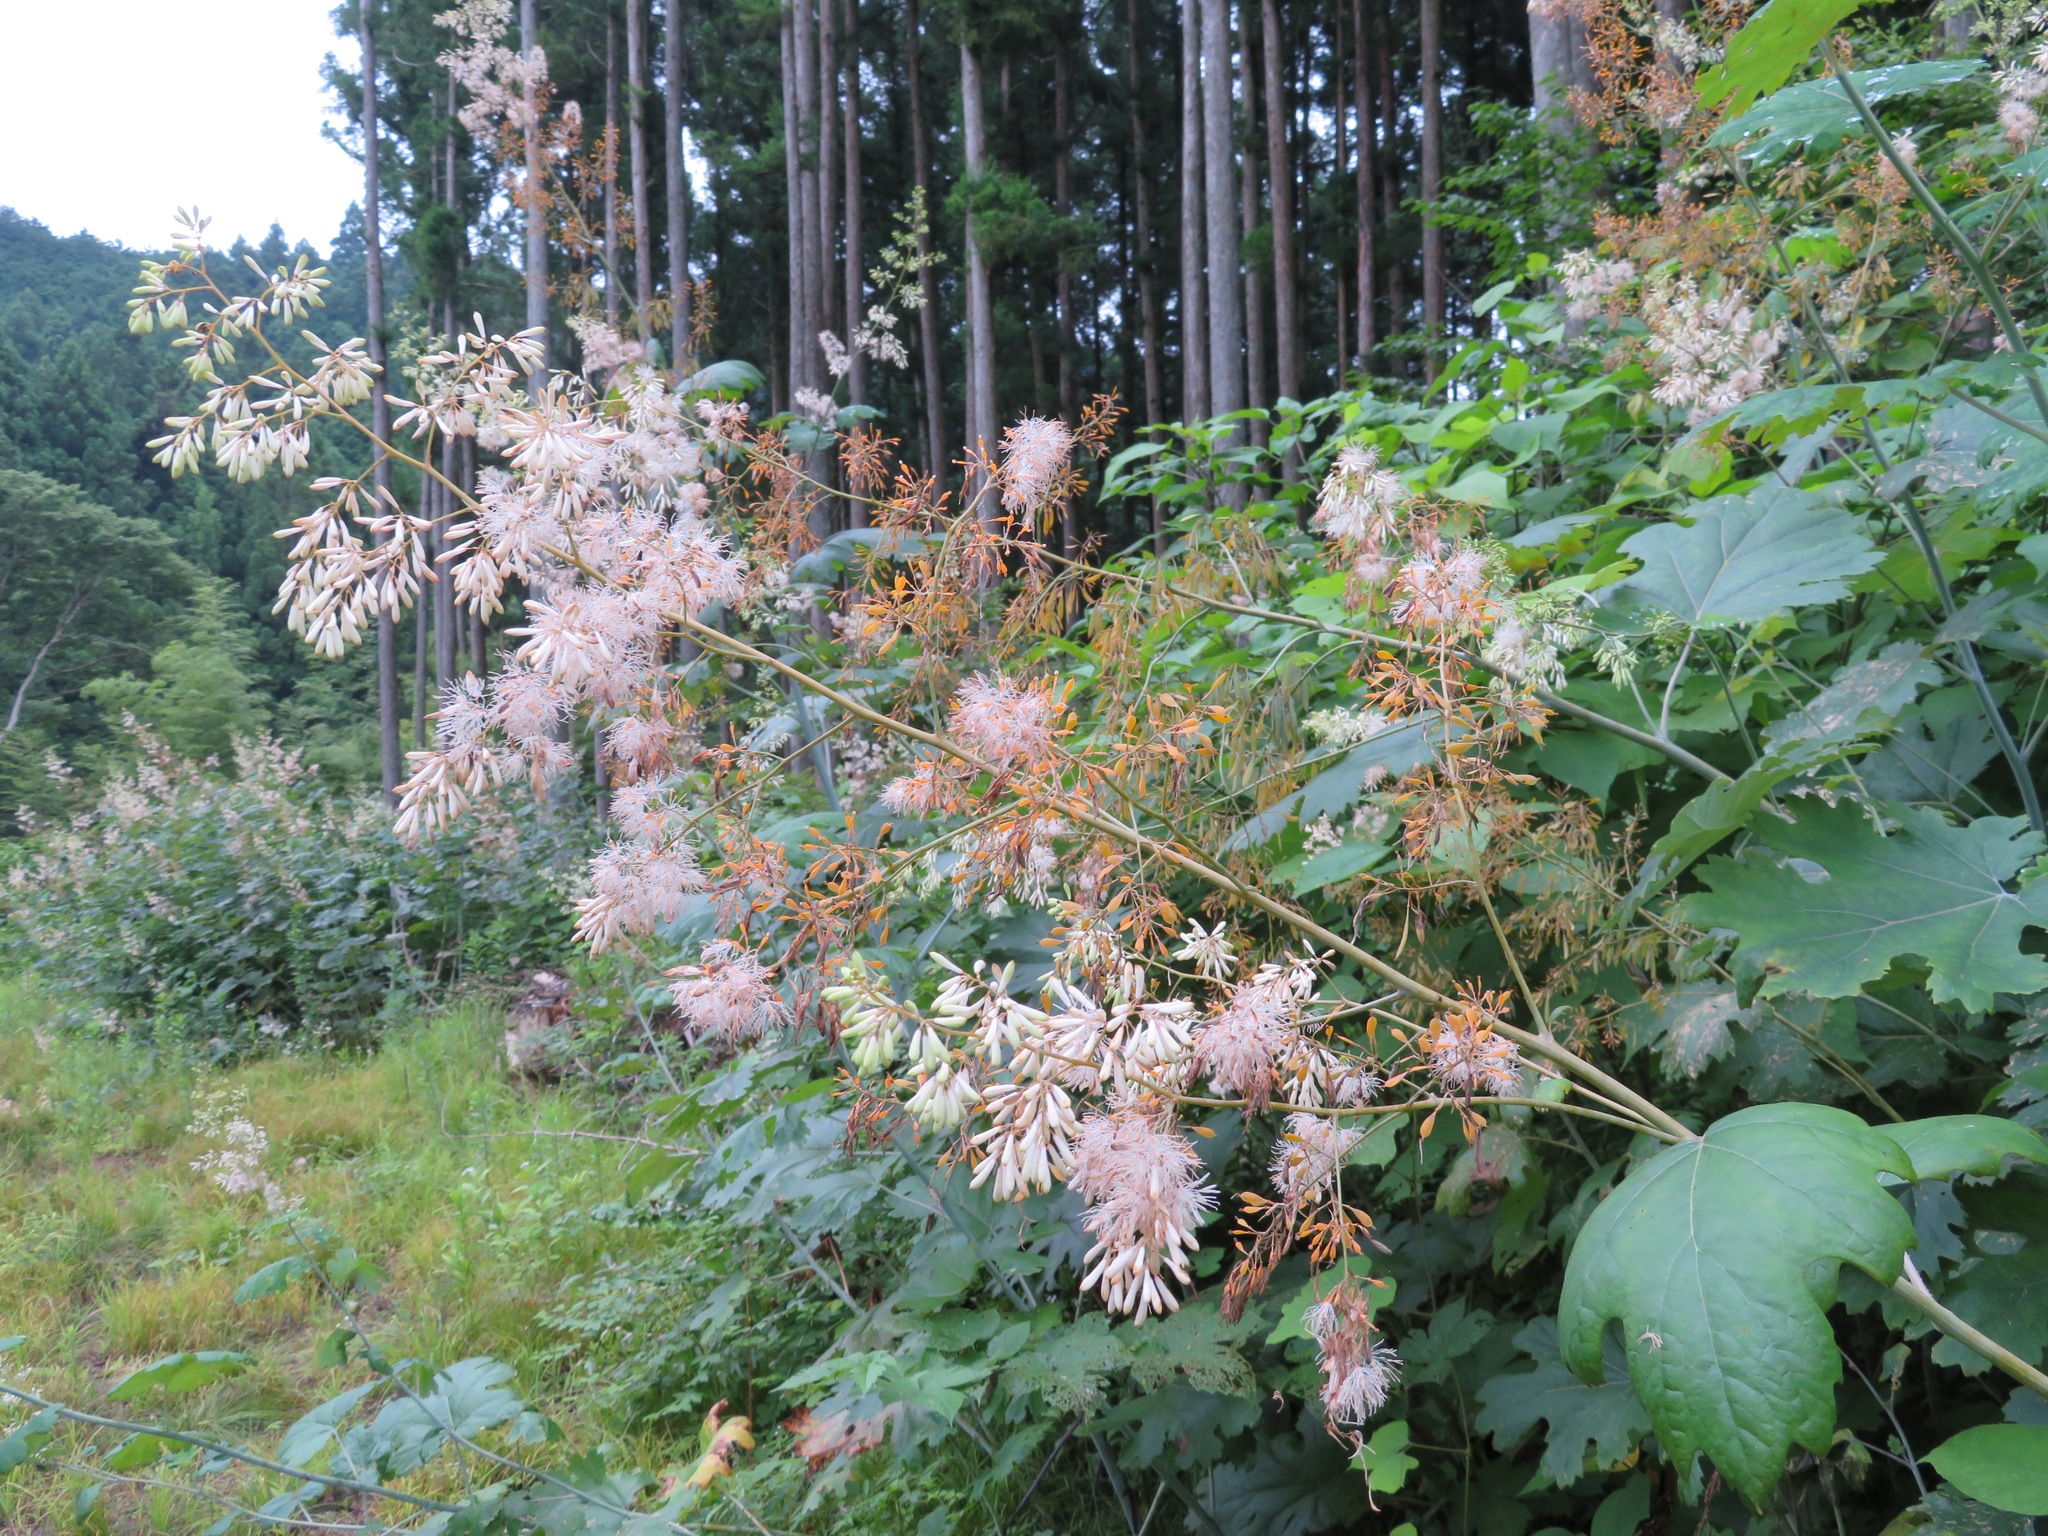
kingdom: Plantae
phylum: Tracheophyta
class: Magnoliopsida
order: Ranunculales
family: Papaveraceae
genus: Macleaya
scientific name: Macleaya cordata
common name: Plume poppy
